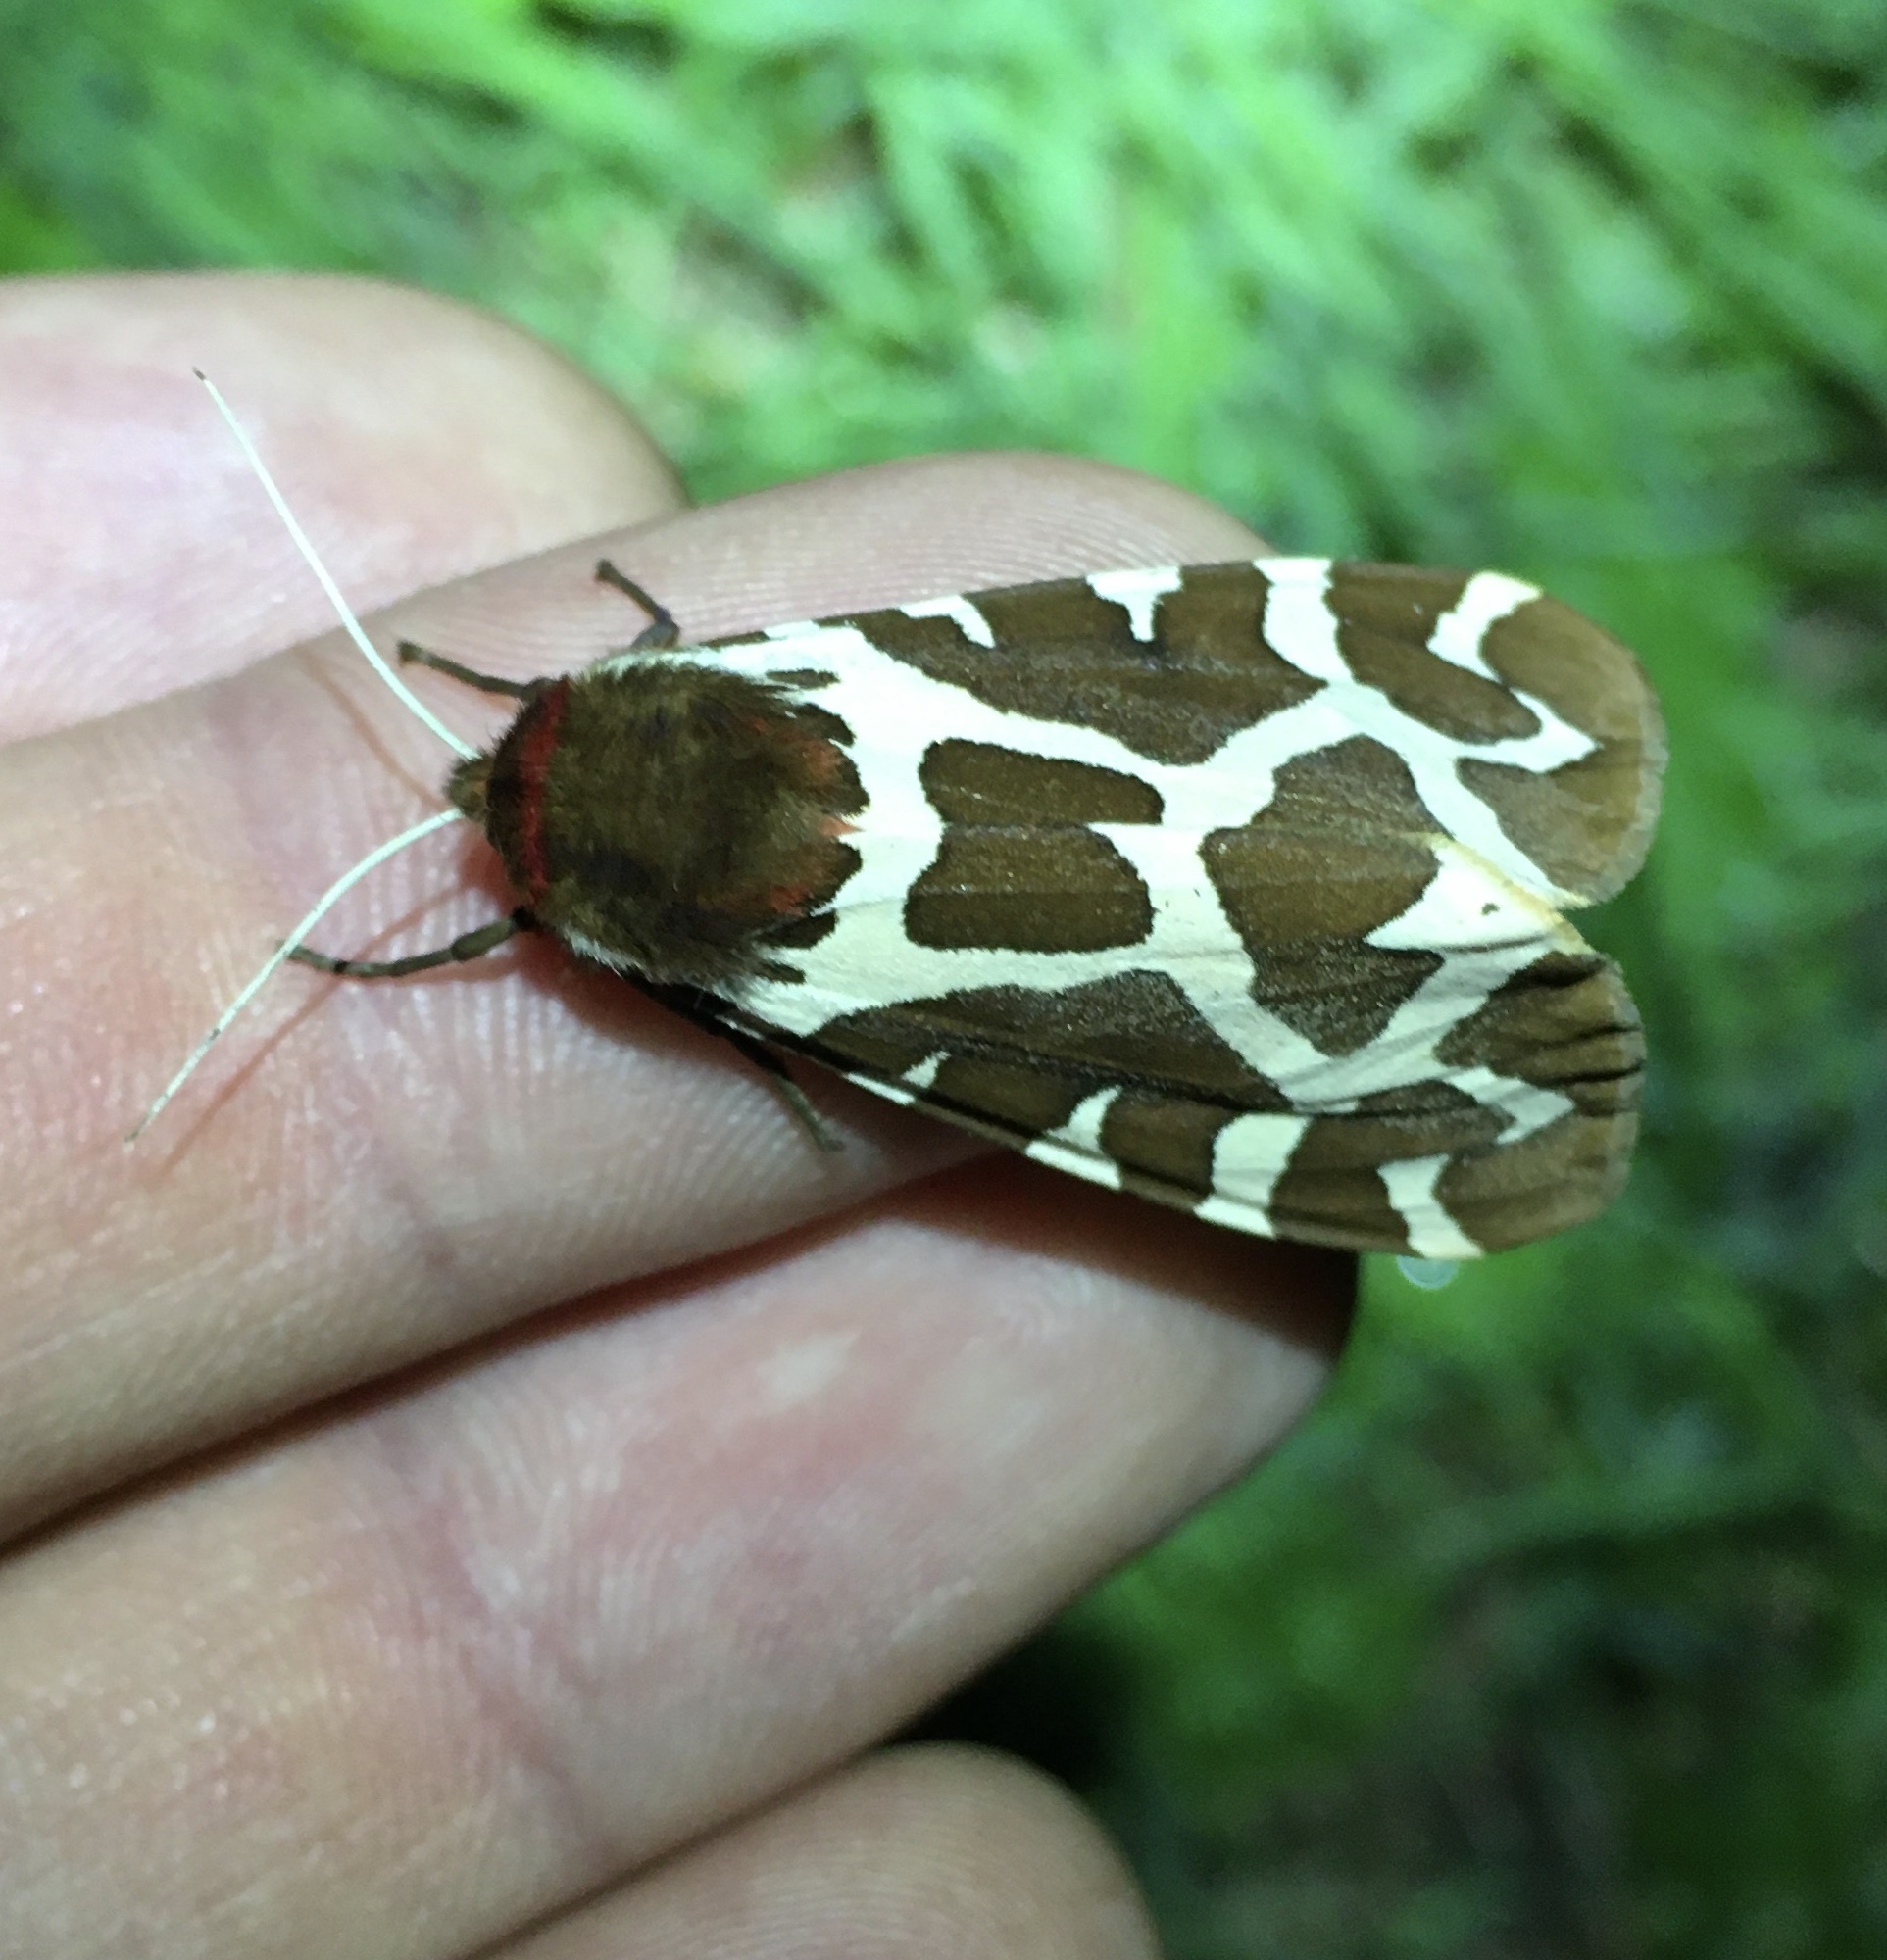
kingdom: Animalia
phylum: Arthropoda
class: Insecta
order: Lepidoptera
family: Erebidae
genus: Arctia
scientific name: Arctia caja
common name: Garden tiger
